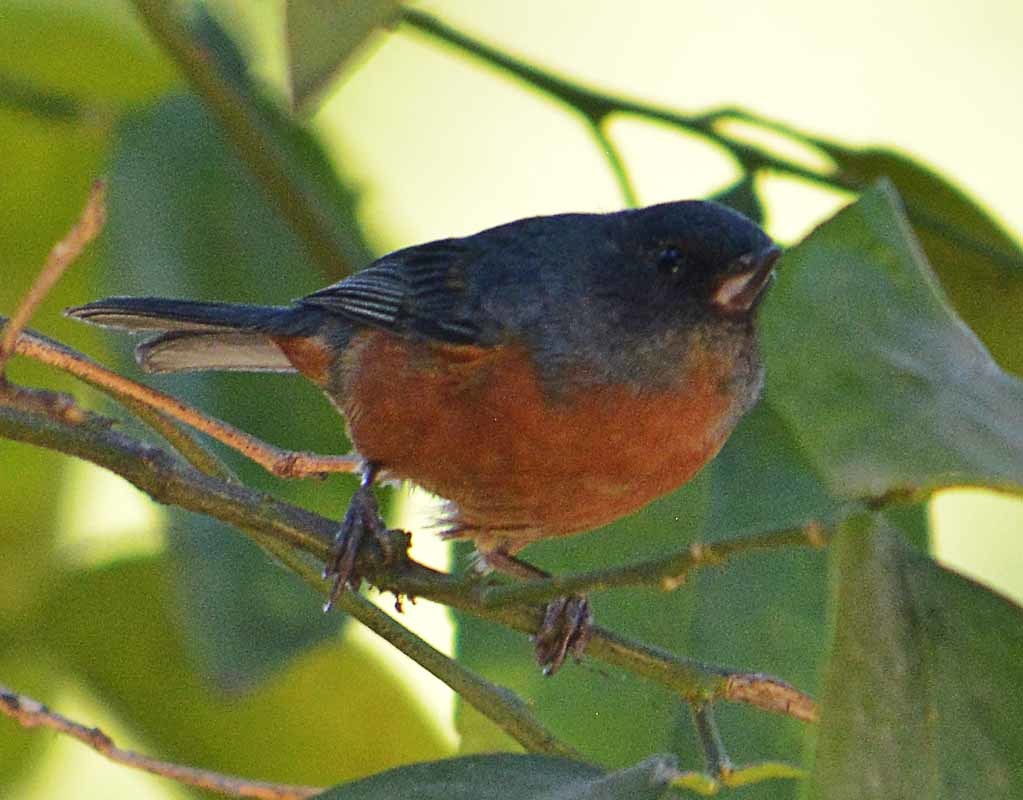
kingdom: Animalia
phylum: Chordata
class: Aves
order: Passeriformes
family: Thraupidae
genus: Diglossa
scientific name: Diglossa baritula
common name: Cinnamon-bellied flowerpiercer
